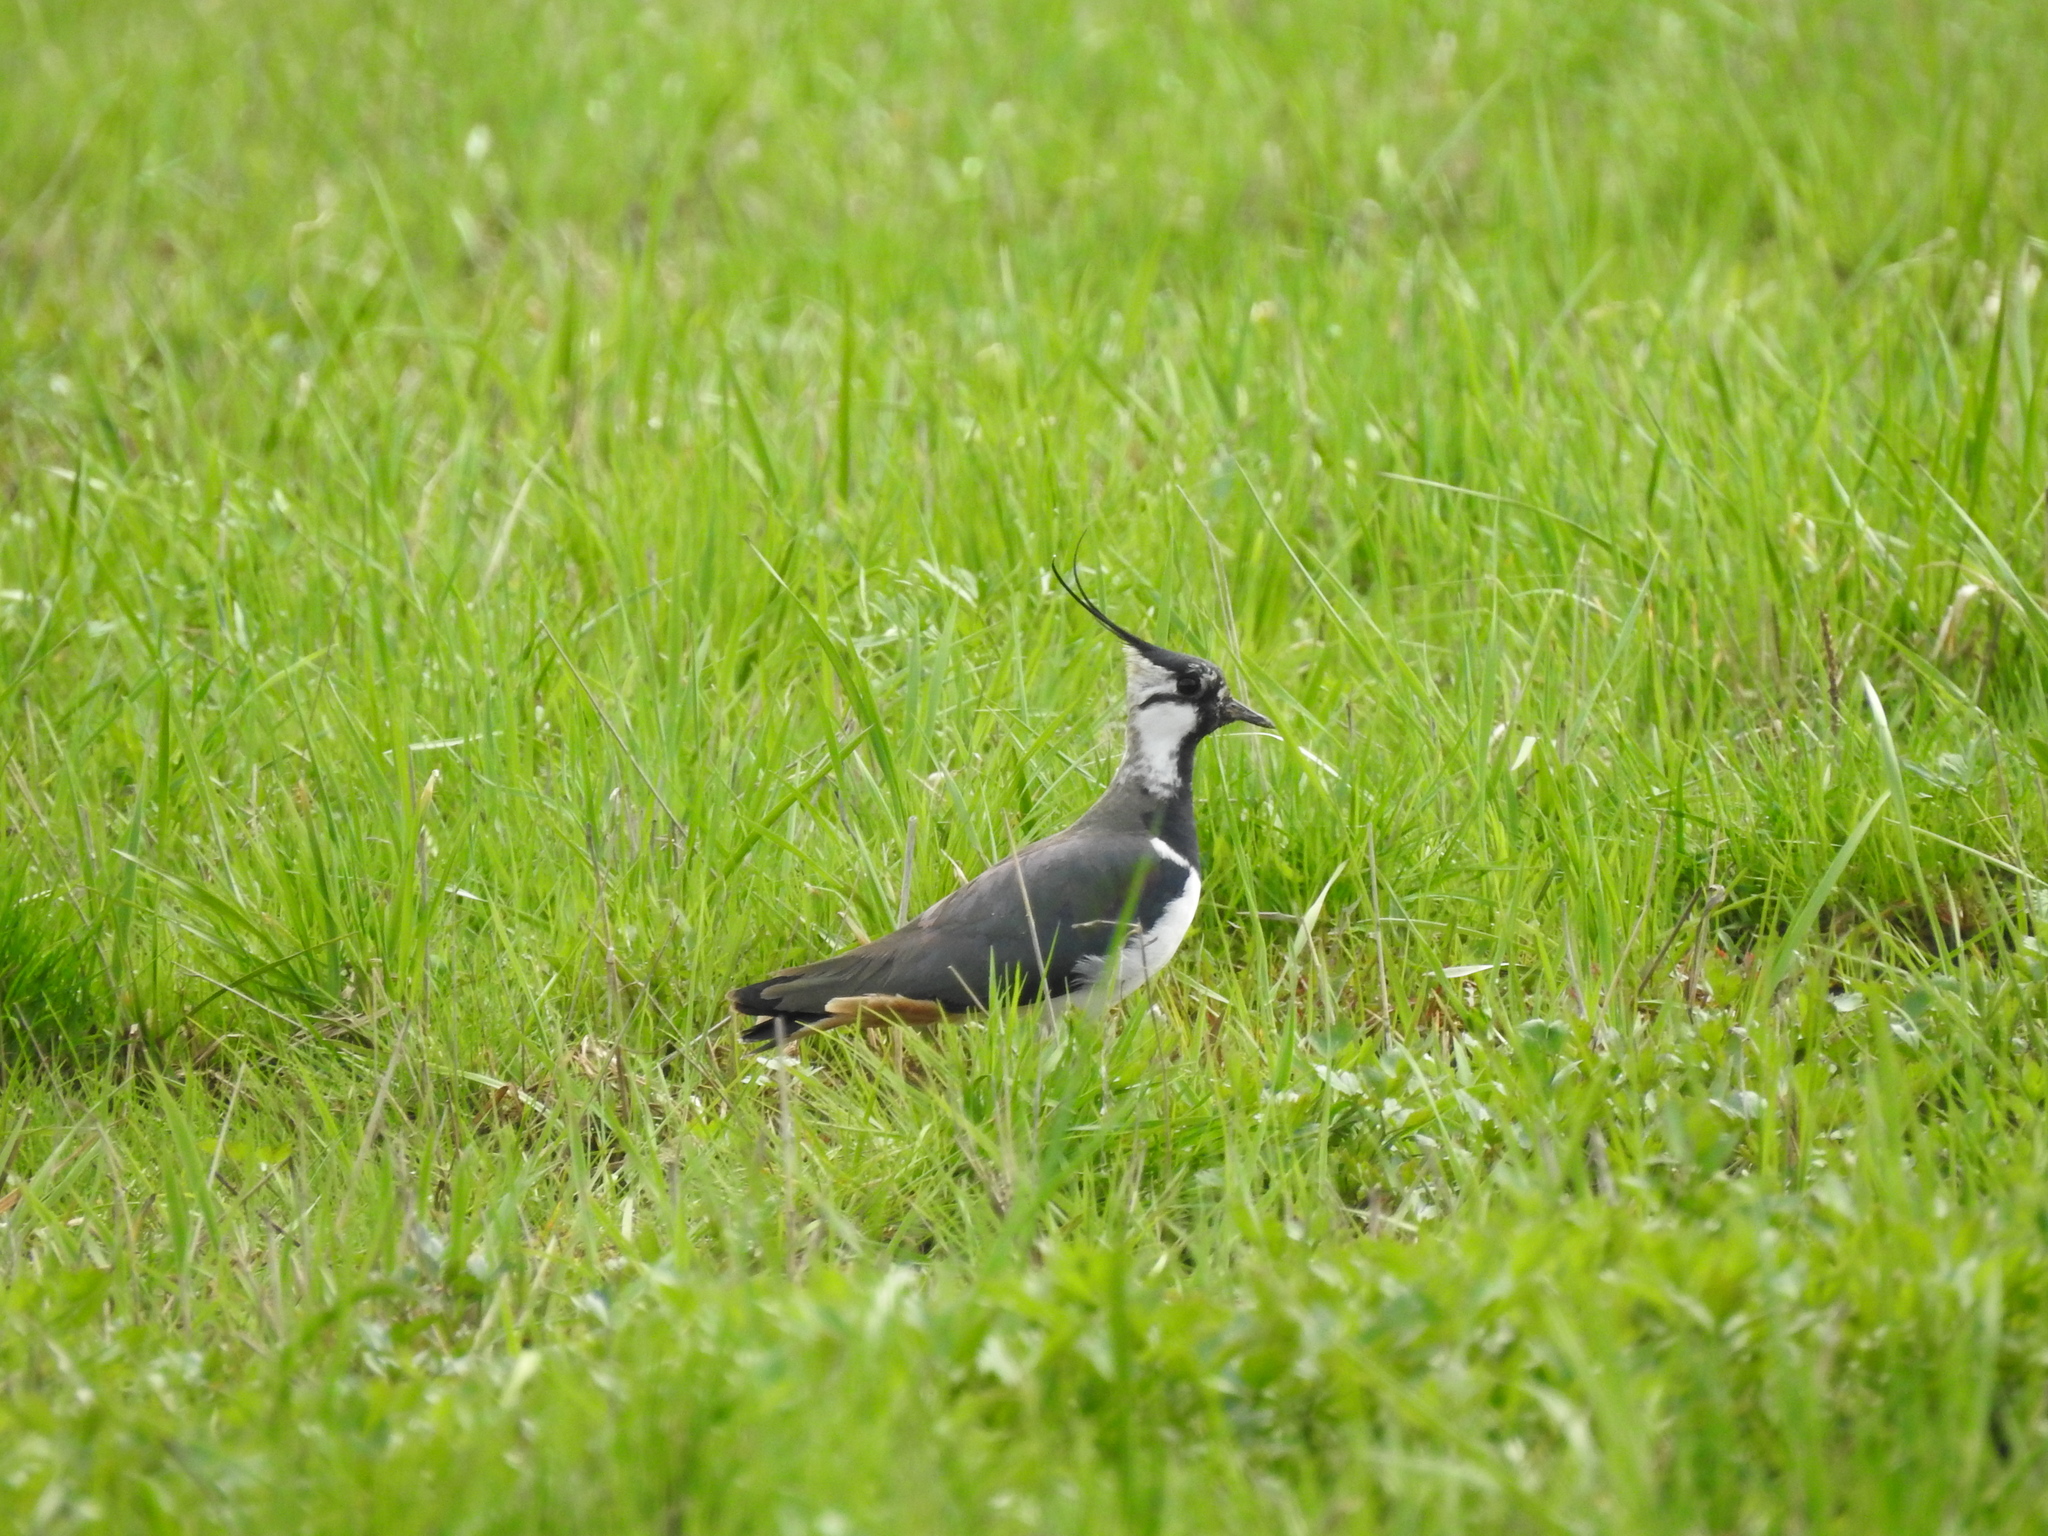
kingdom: Animalia
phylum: Chordata
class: Aves
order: Charadriiformes
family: Charadriidae
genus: Vanellus
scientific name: Vanellus vanellus
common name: Northern lapwing
